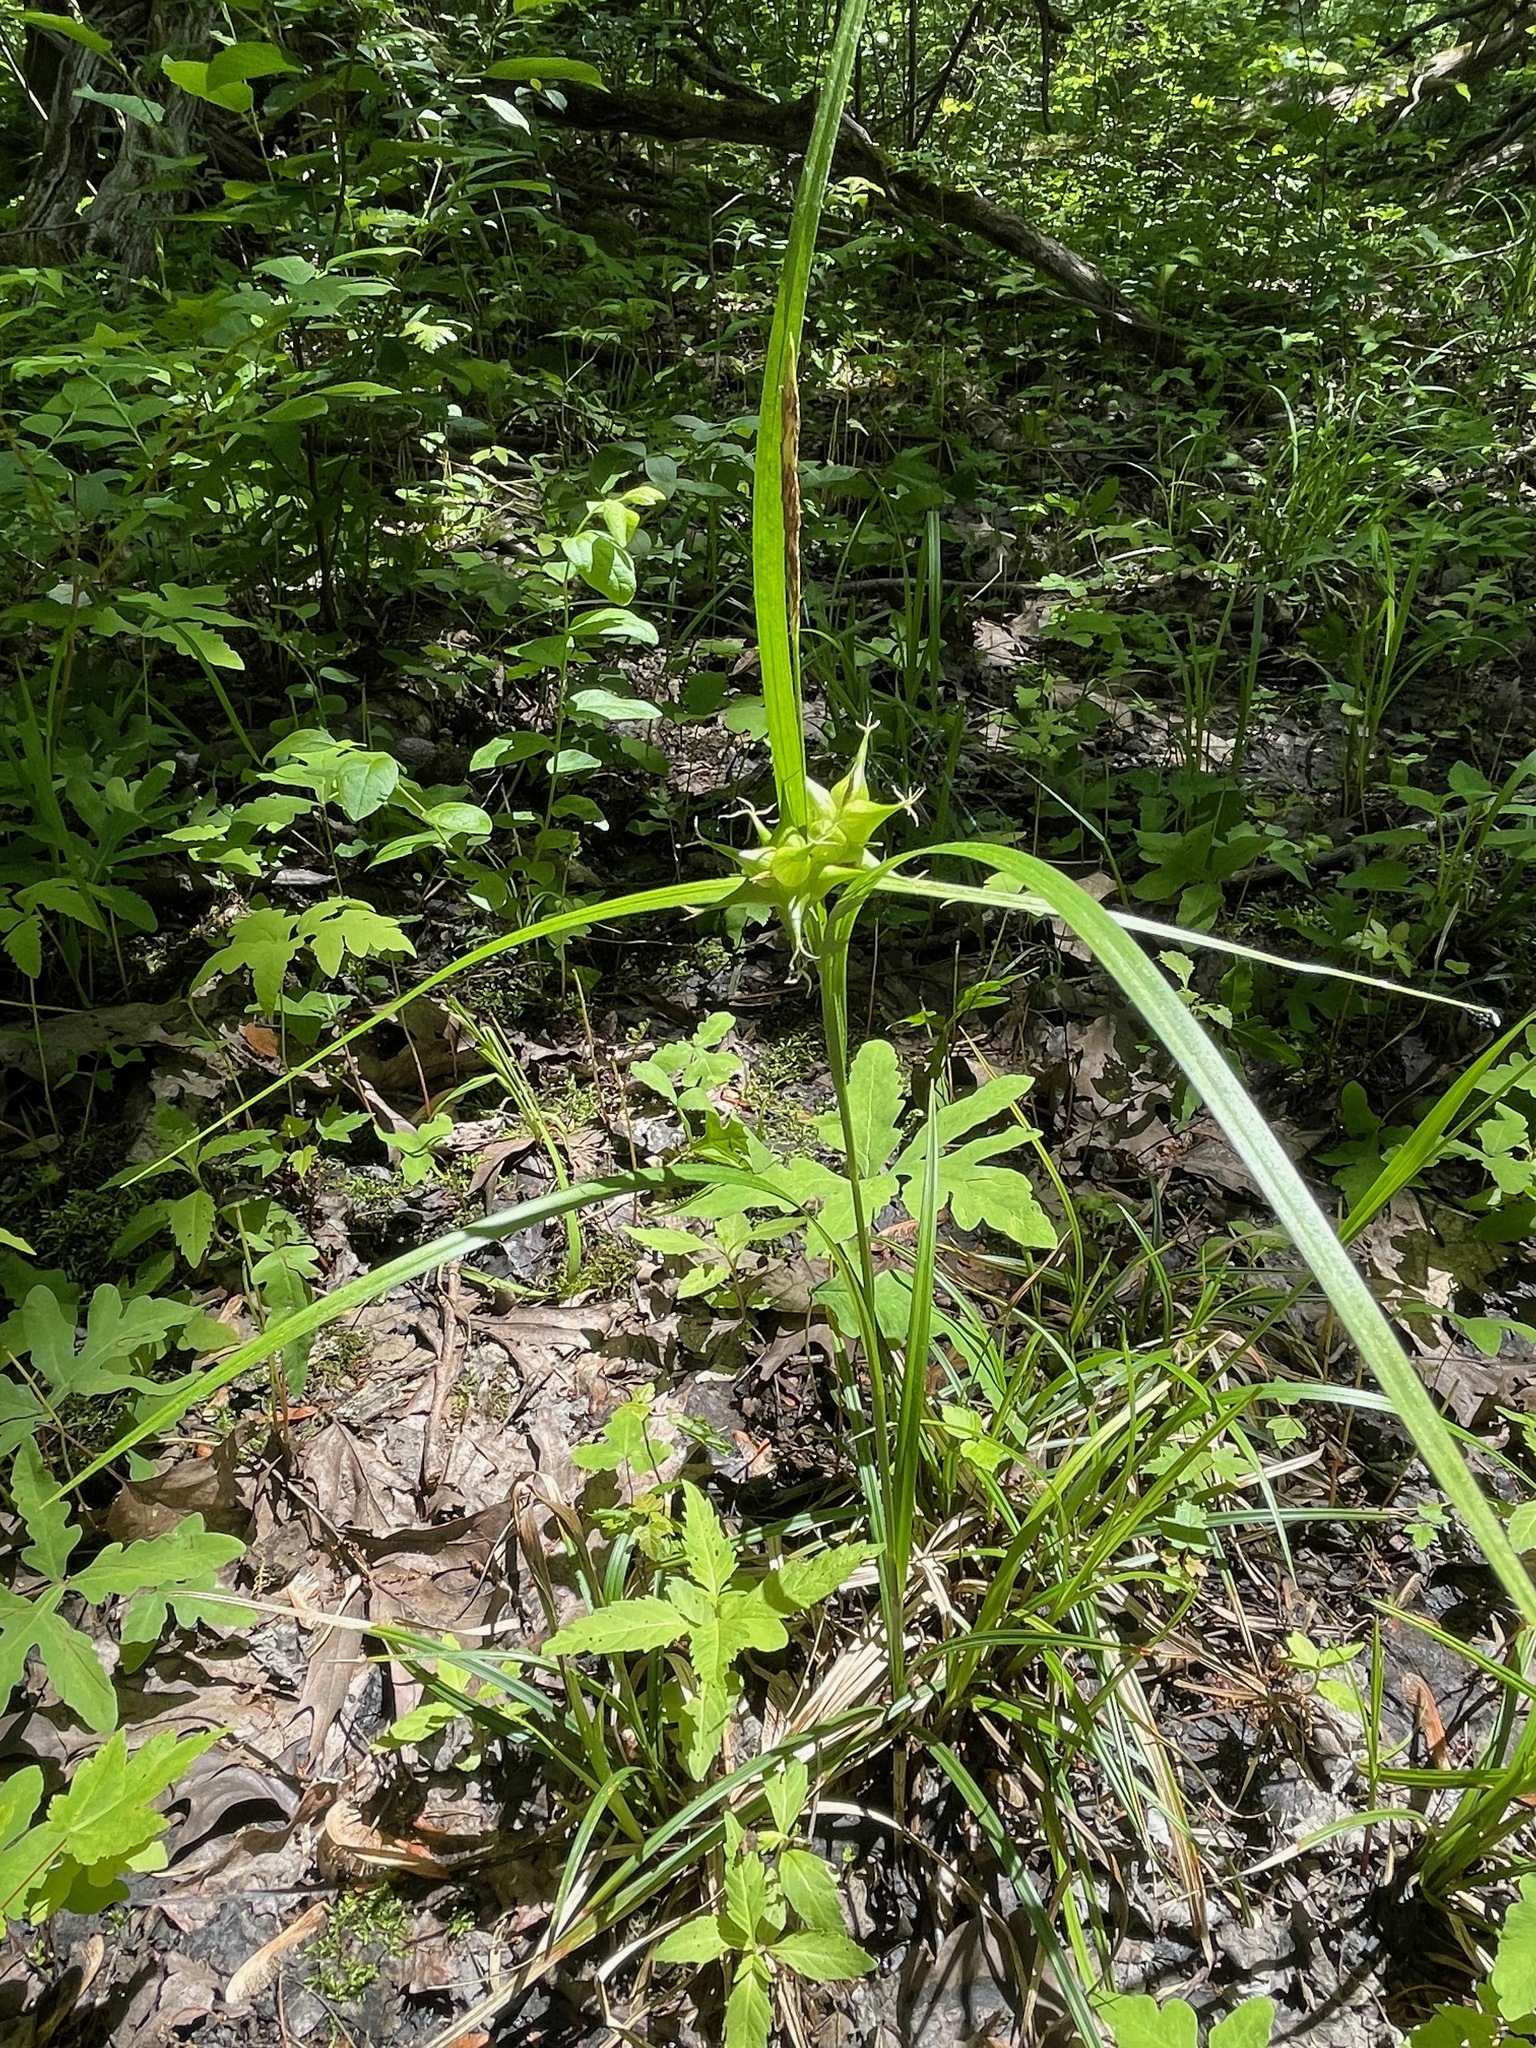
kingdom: Plantae
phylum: Tracheophyta
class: Liliopsida
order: Poales
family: Cyperaceae
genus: Carex
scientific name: Carex intumescens
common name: Greater bladder sedge
